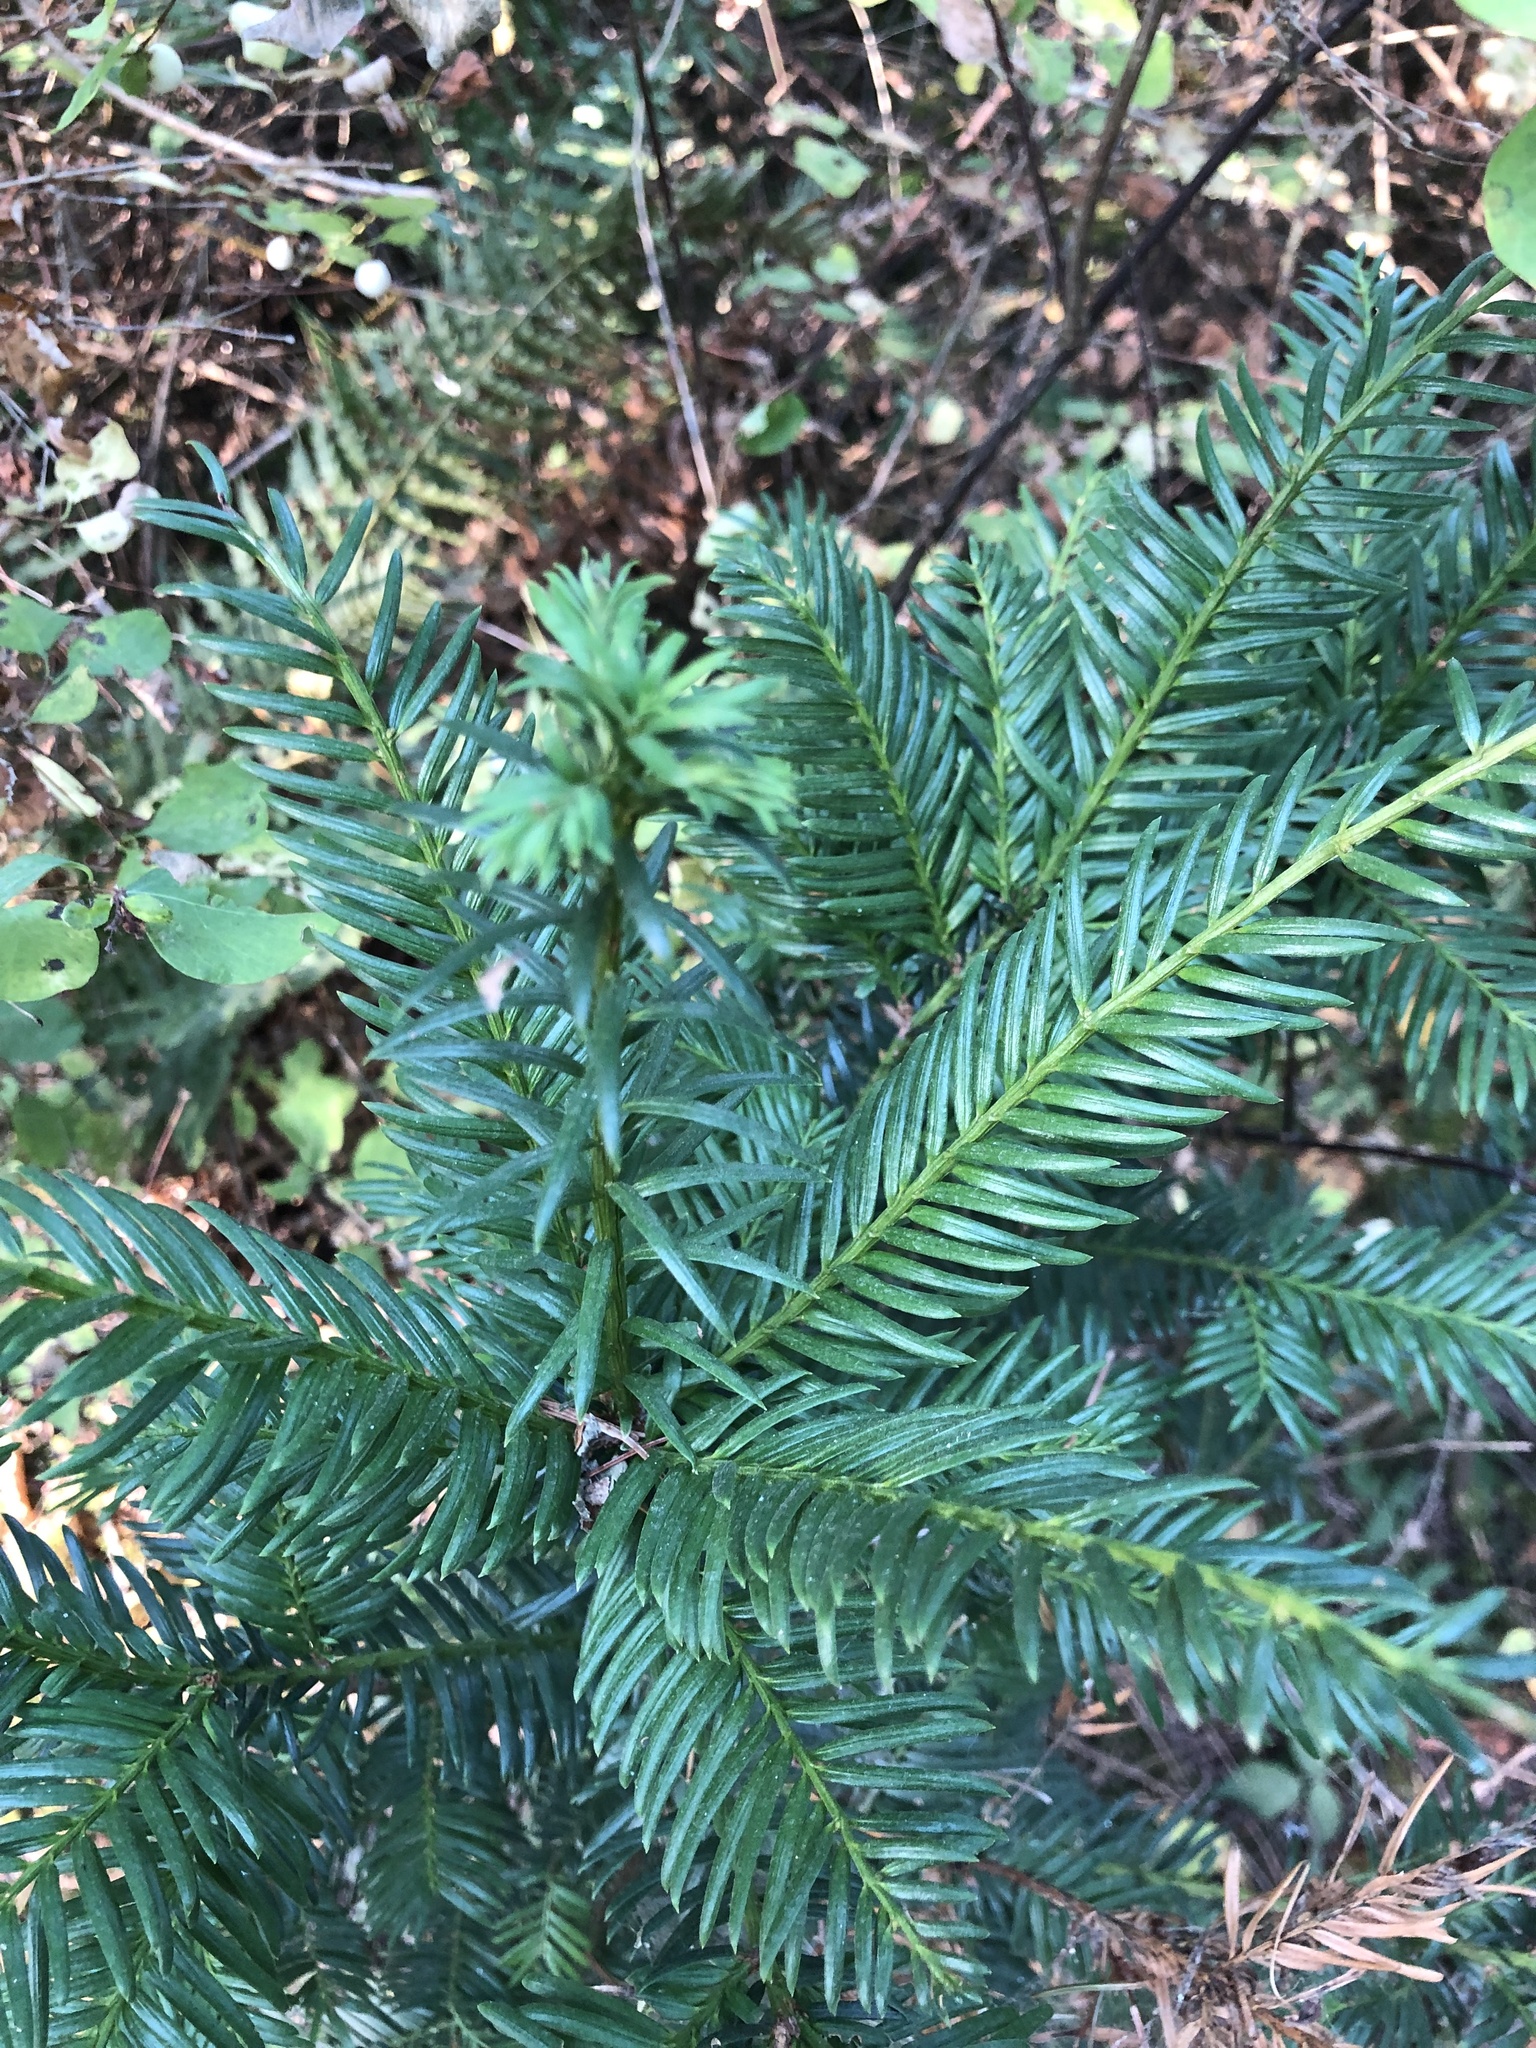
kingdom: Plantae
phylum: Tracheophyta
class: Pinopsida
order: Pinales
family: Taxaceae
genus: Taxus
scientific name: Taxus brevifolia
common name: Pacific yew
